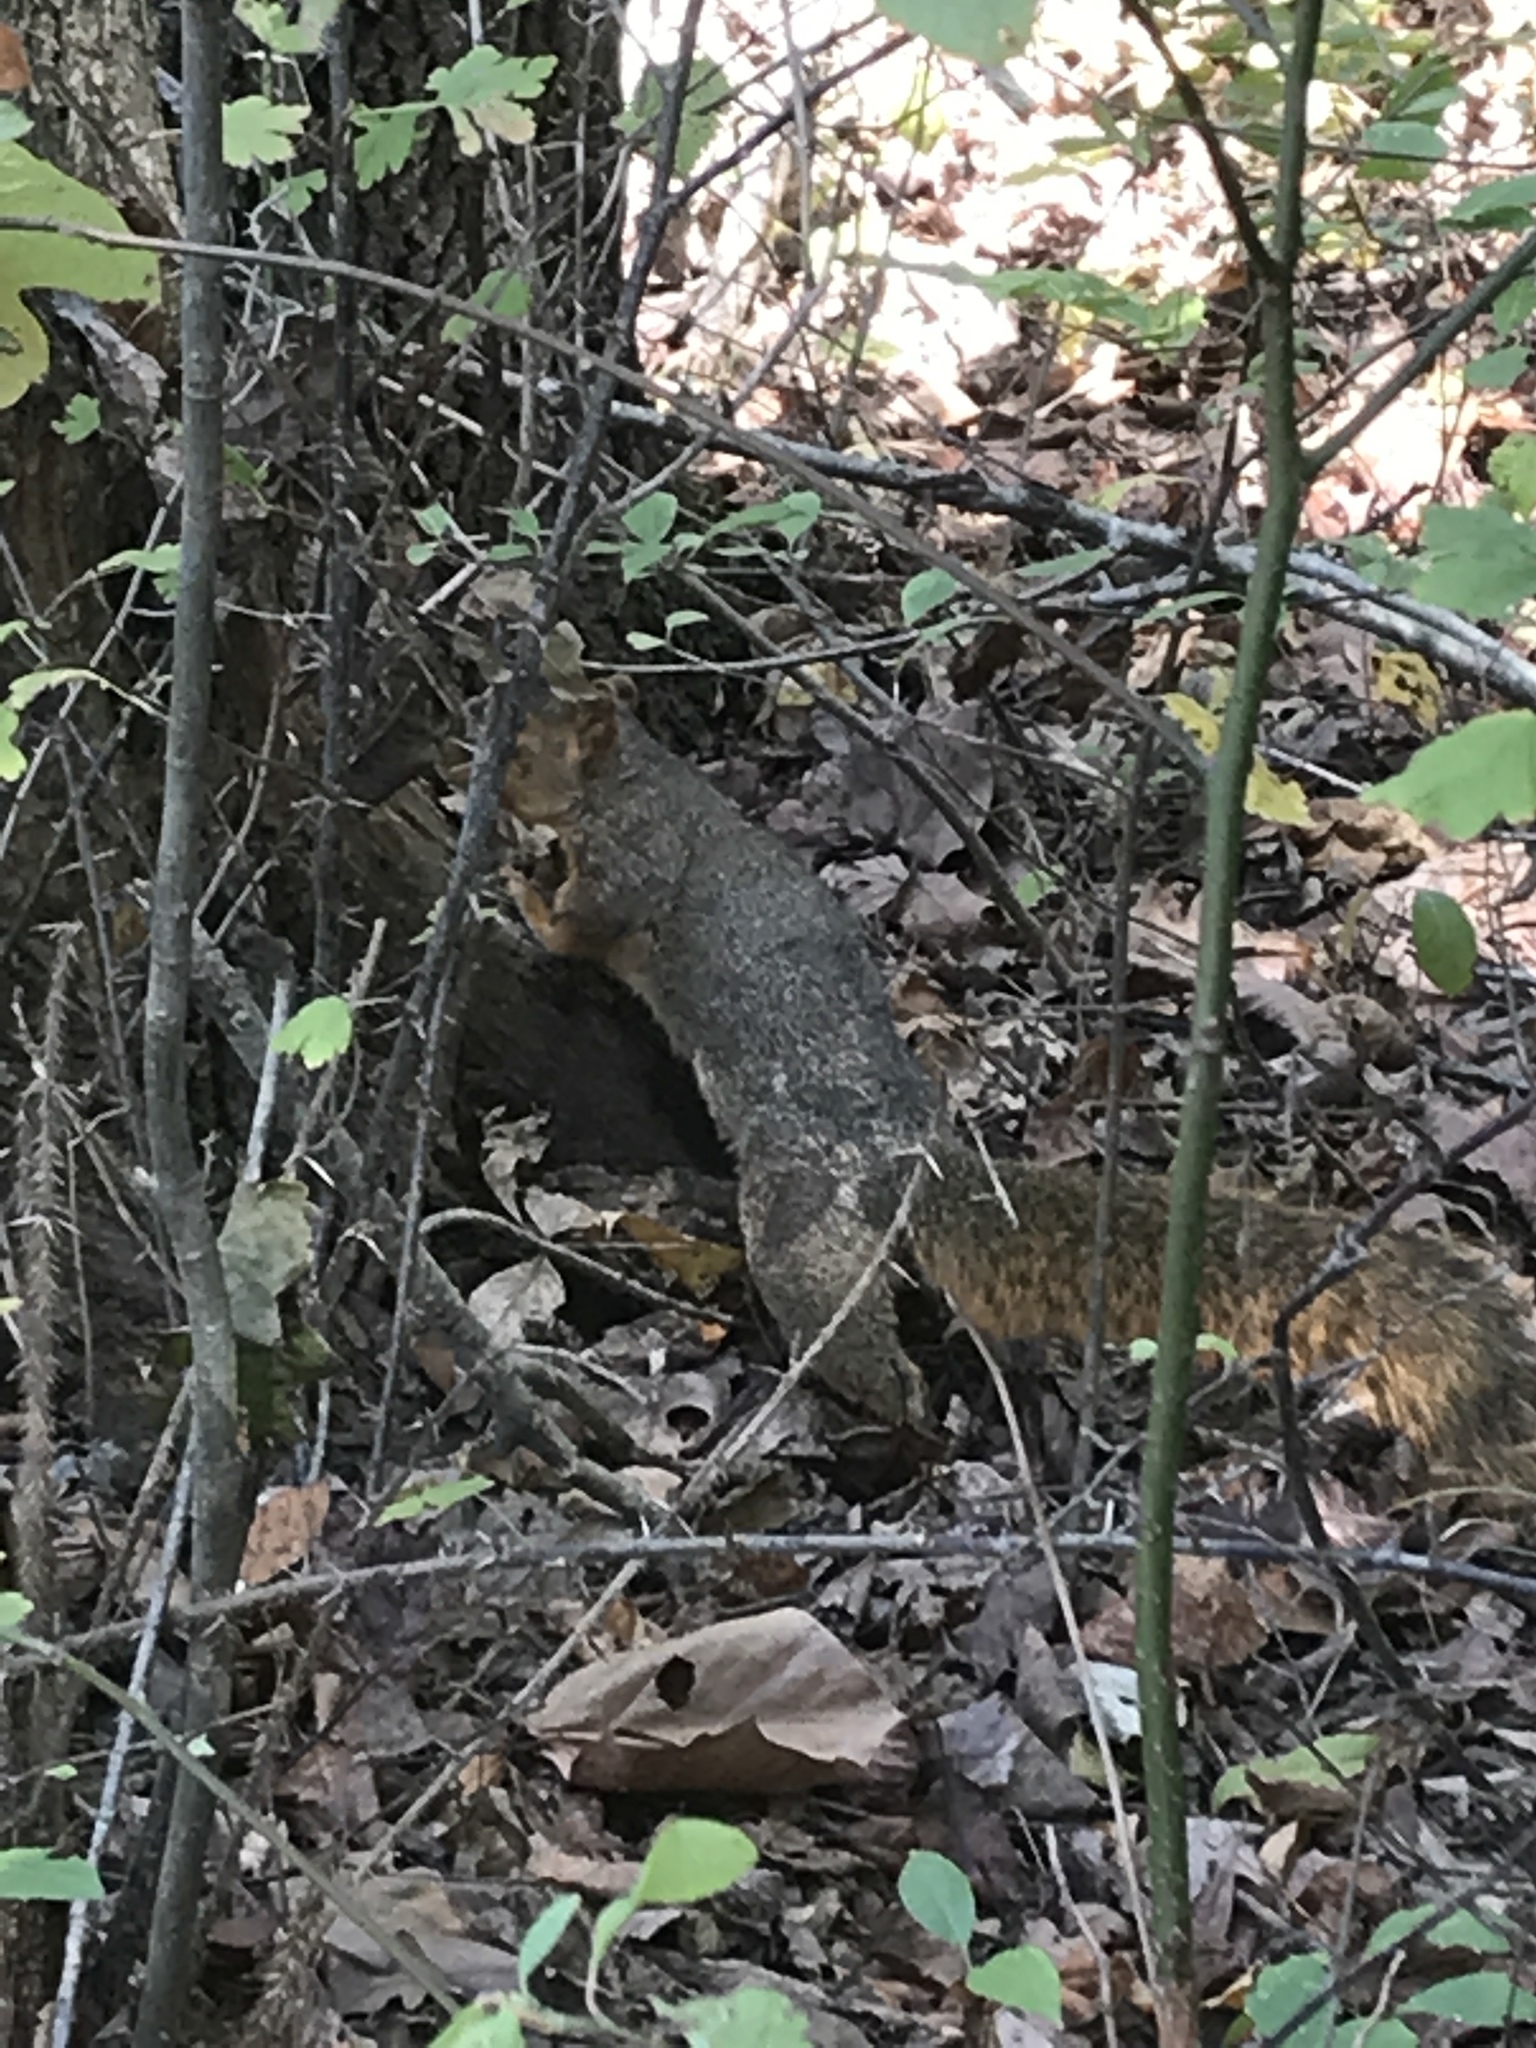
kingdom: Animalia
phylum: Chordata
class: Mammalia
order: Rodentia
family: Sciuridae
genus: Sciurus
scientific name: Sciurus niger
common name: Fox squirrel
